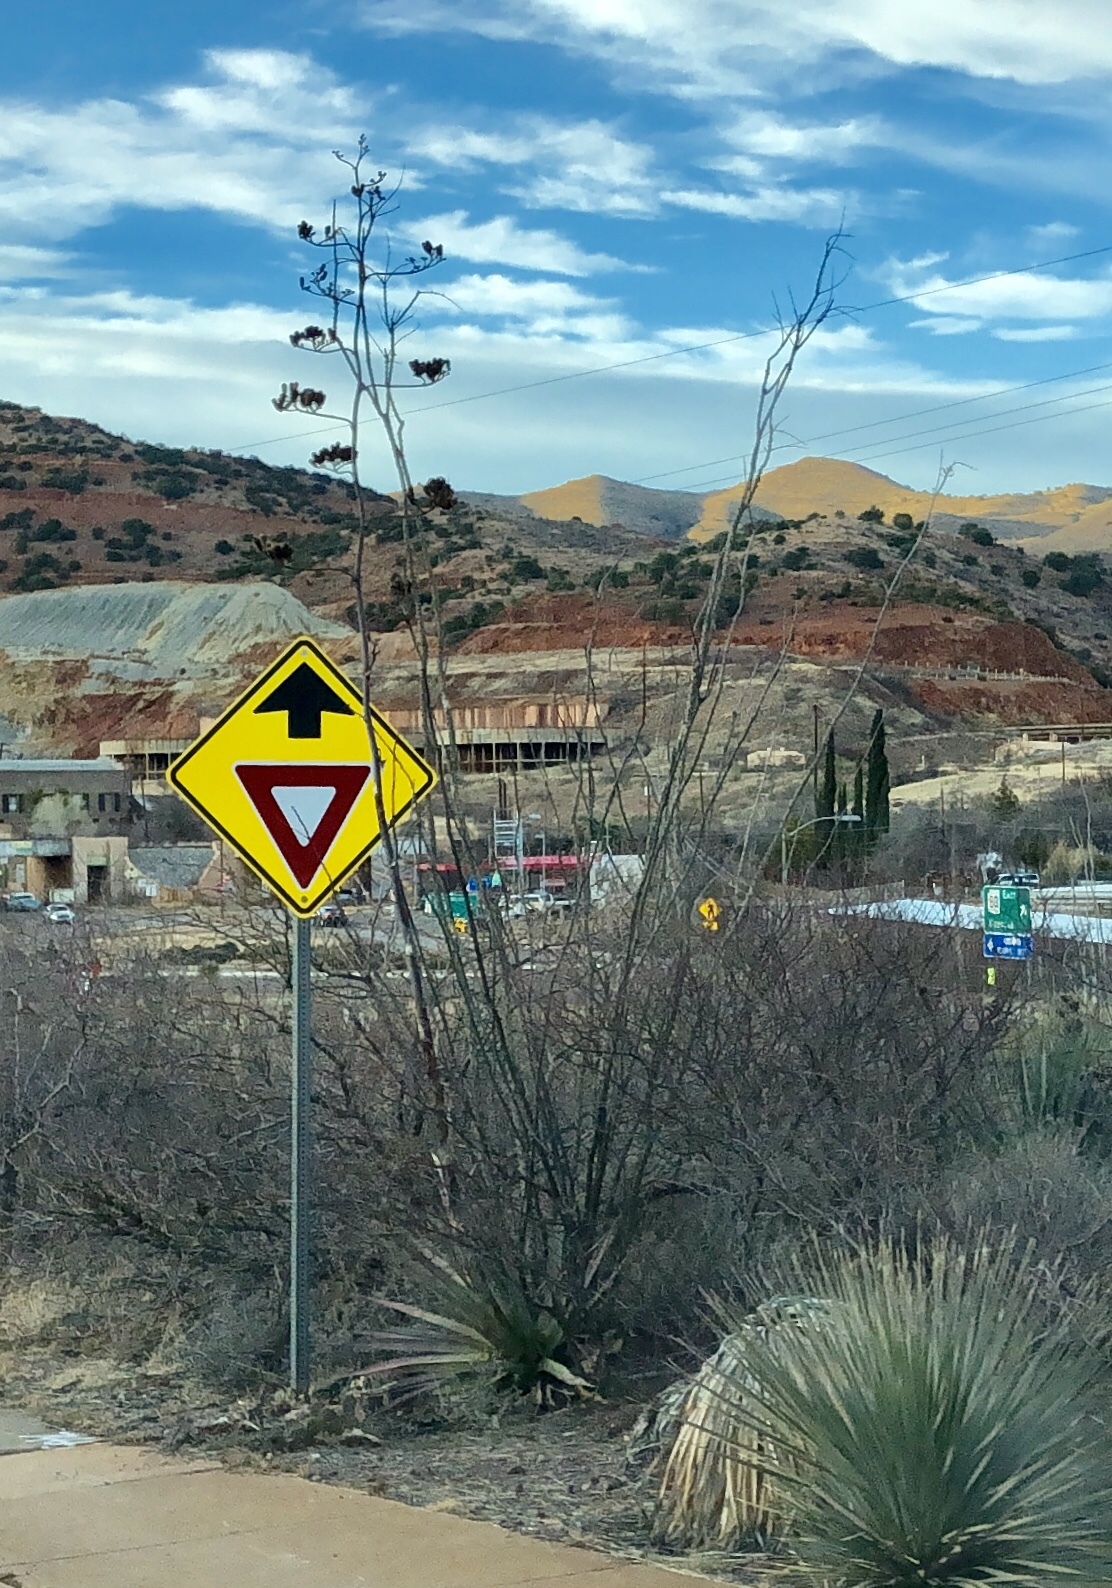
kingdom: Plantae
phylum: Tracheophyta
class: Magnoliopsida
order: Ericales
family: Fouquieriaceae
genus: Fouquieria
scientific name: Fouquieria splendens
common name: Vine-cactus
